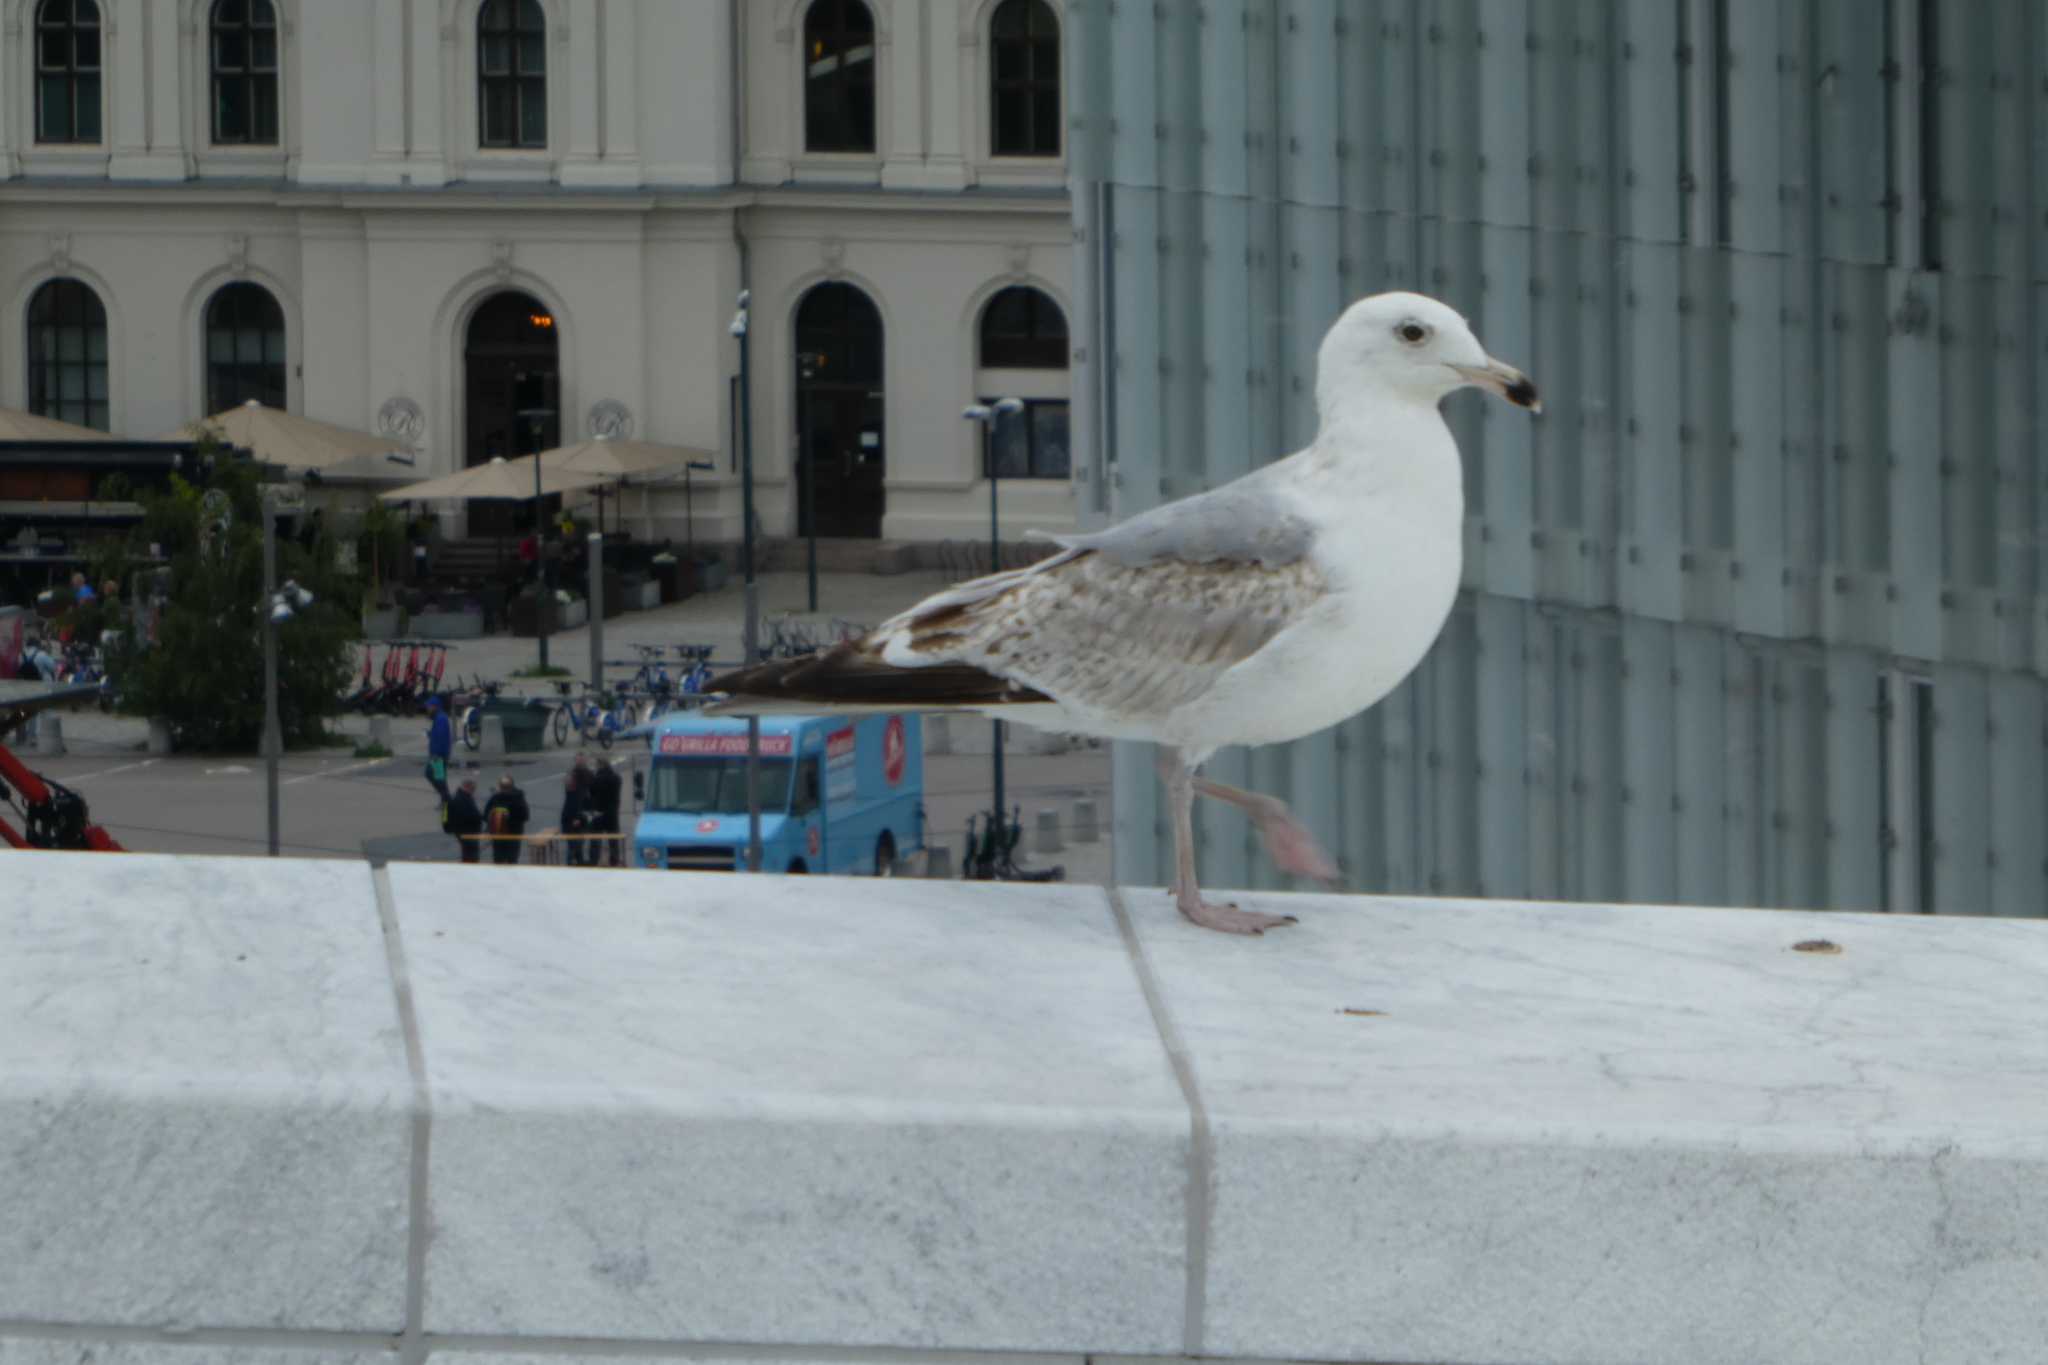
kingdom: Animalia
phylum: Chordata
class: Aves
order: Charadriiformes
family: Laridae
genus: Larus
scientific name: Larus argentatus
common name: Herring gull
